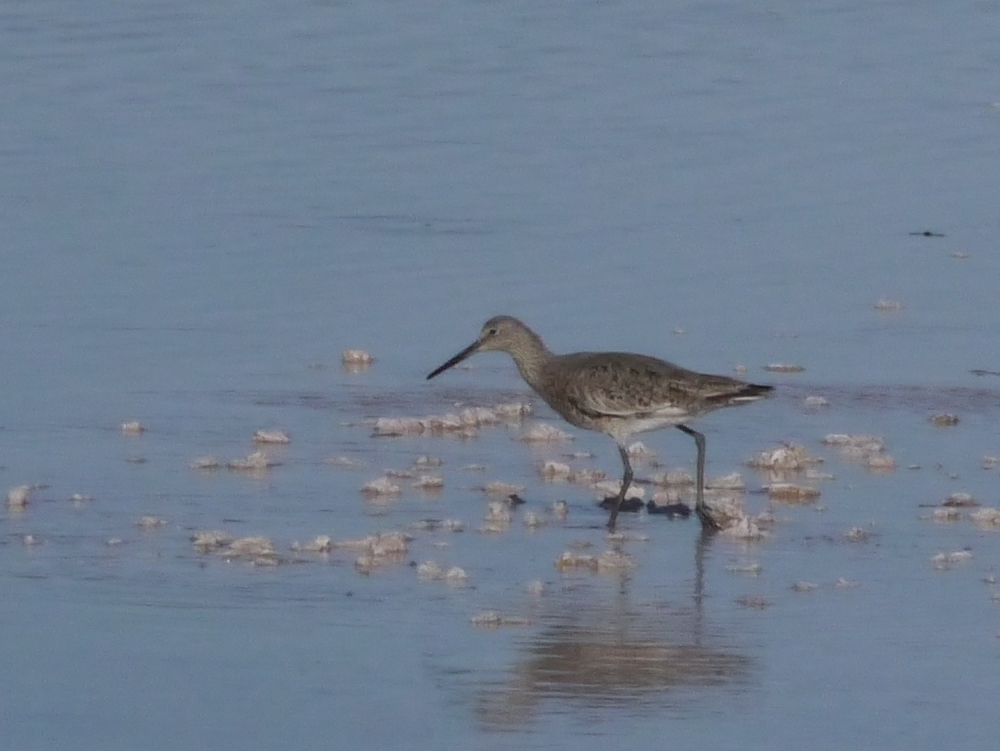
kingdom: Animalia
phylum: Chordata
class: Aves
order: Charadriiformes
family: Scolopacidae
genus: Tringa
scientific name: Tringa semipalmata
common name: Willet
